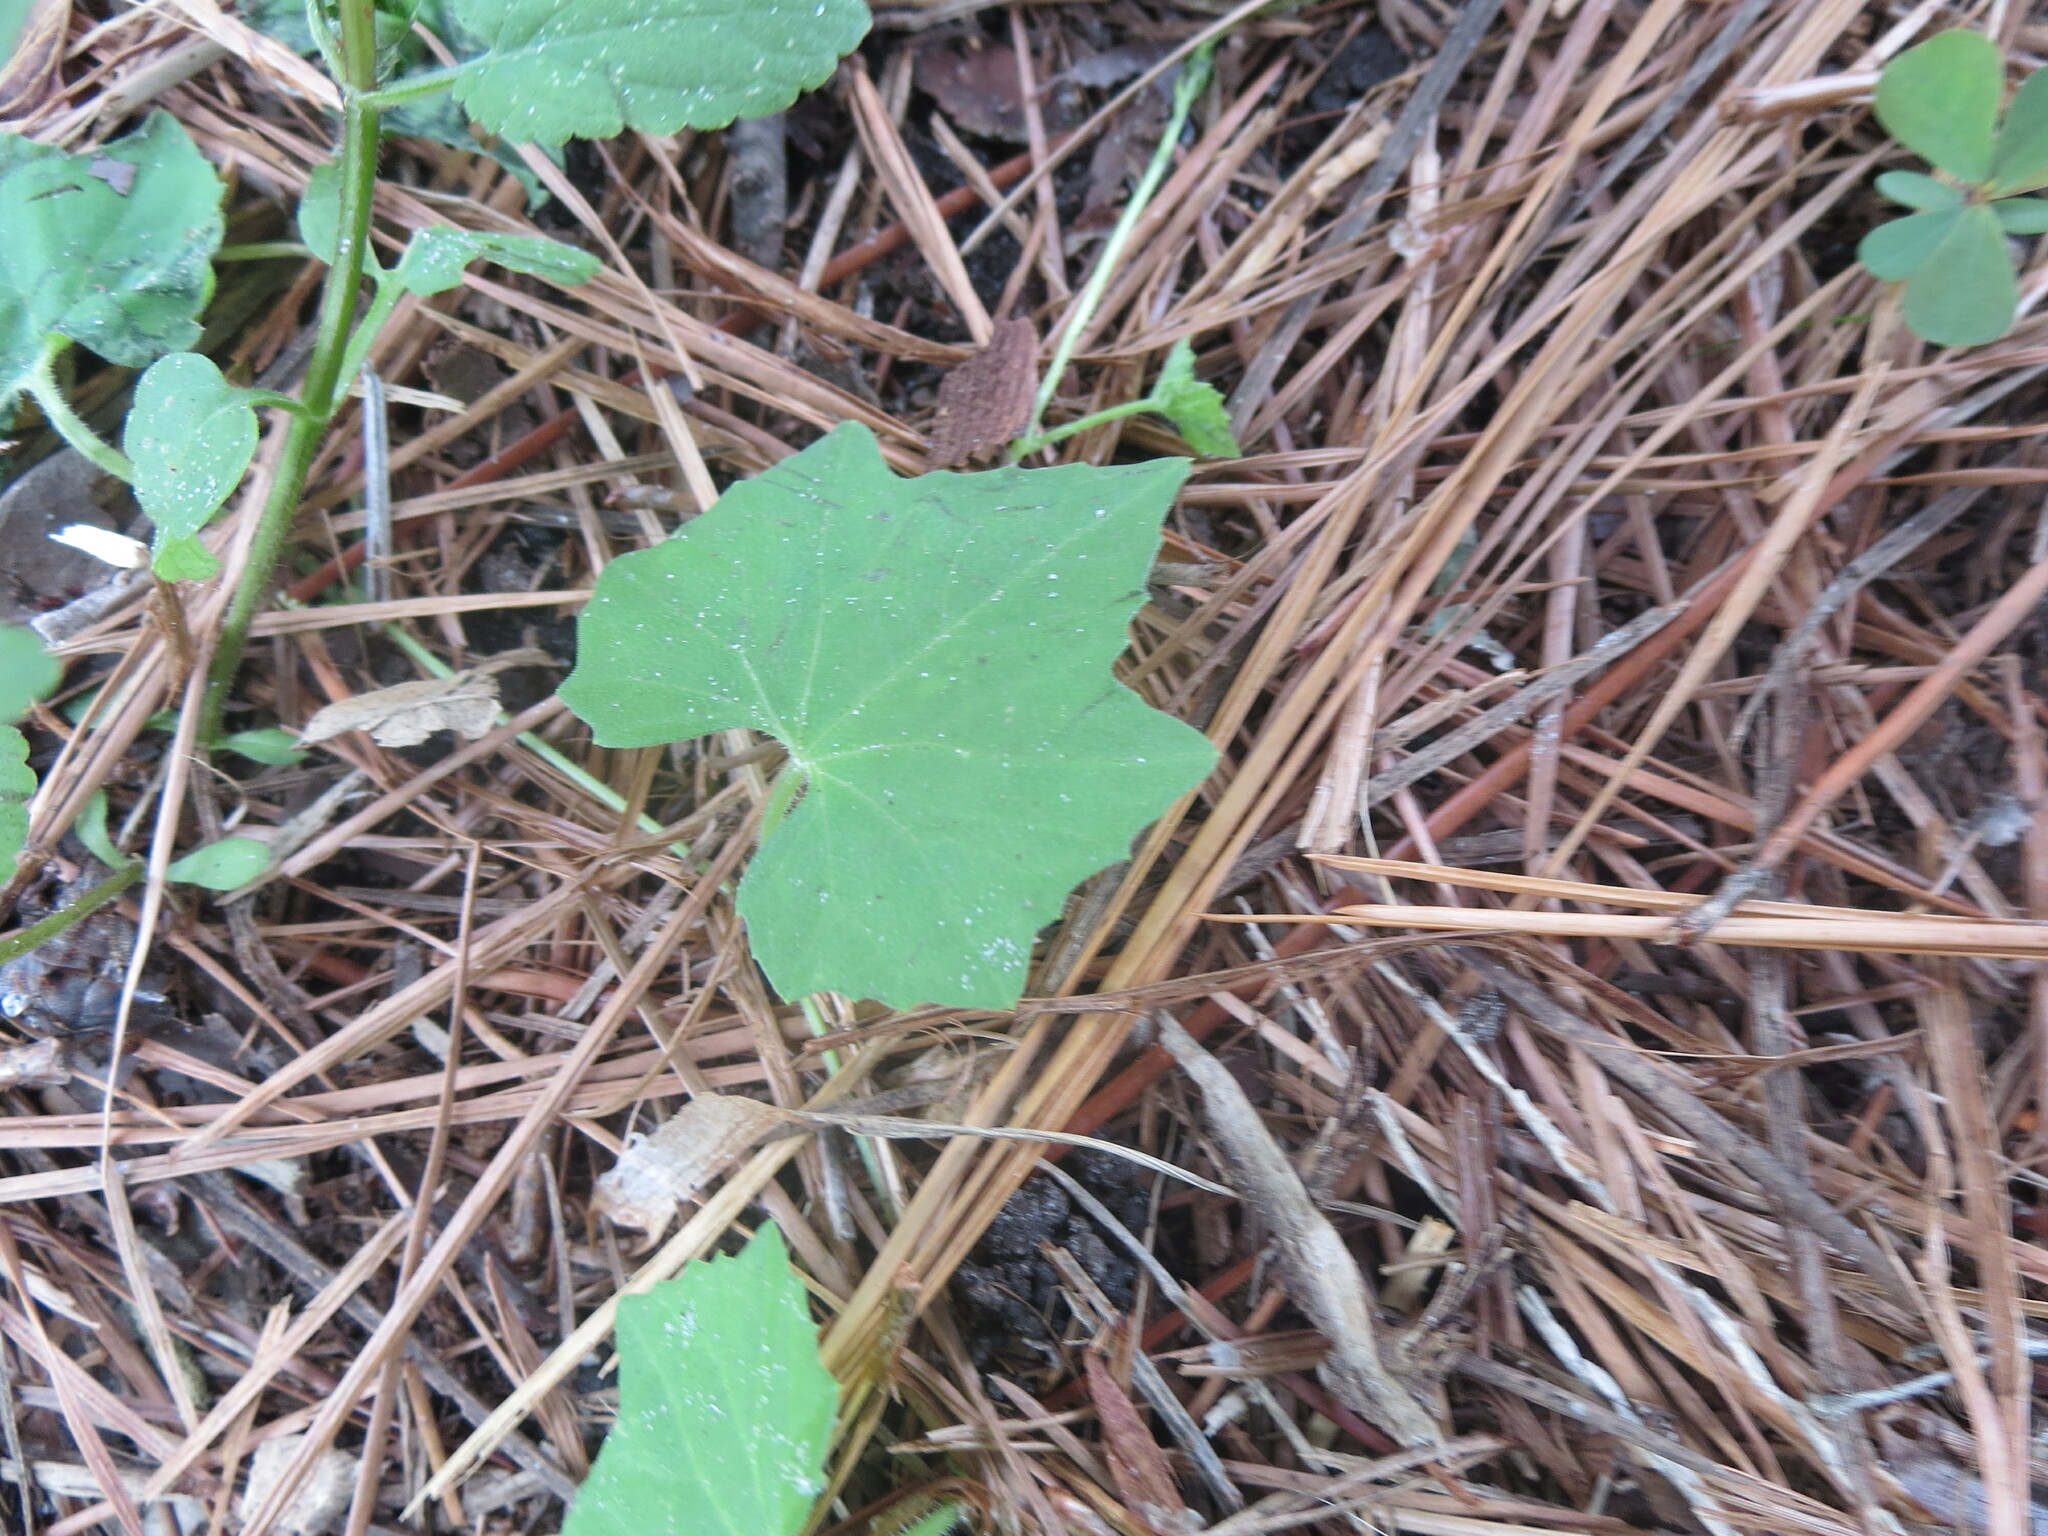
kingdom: Plantae
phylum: Tracheophyta
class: Magnoliopsida
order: Cucurbitales
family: Cucurbitaceae
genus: Melothria
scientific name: Melothria pendula
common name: Creeping-cucumber
